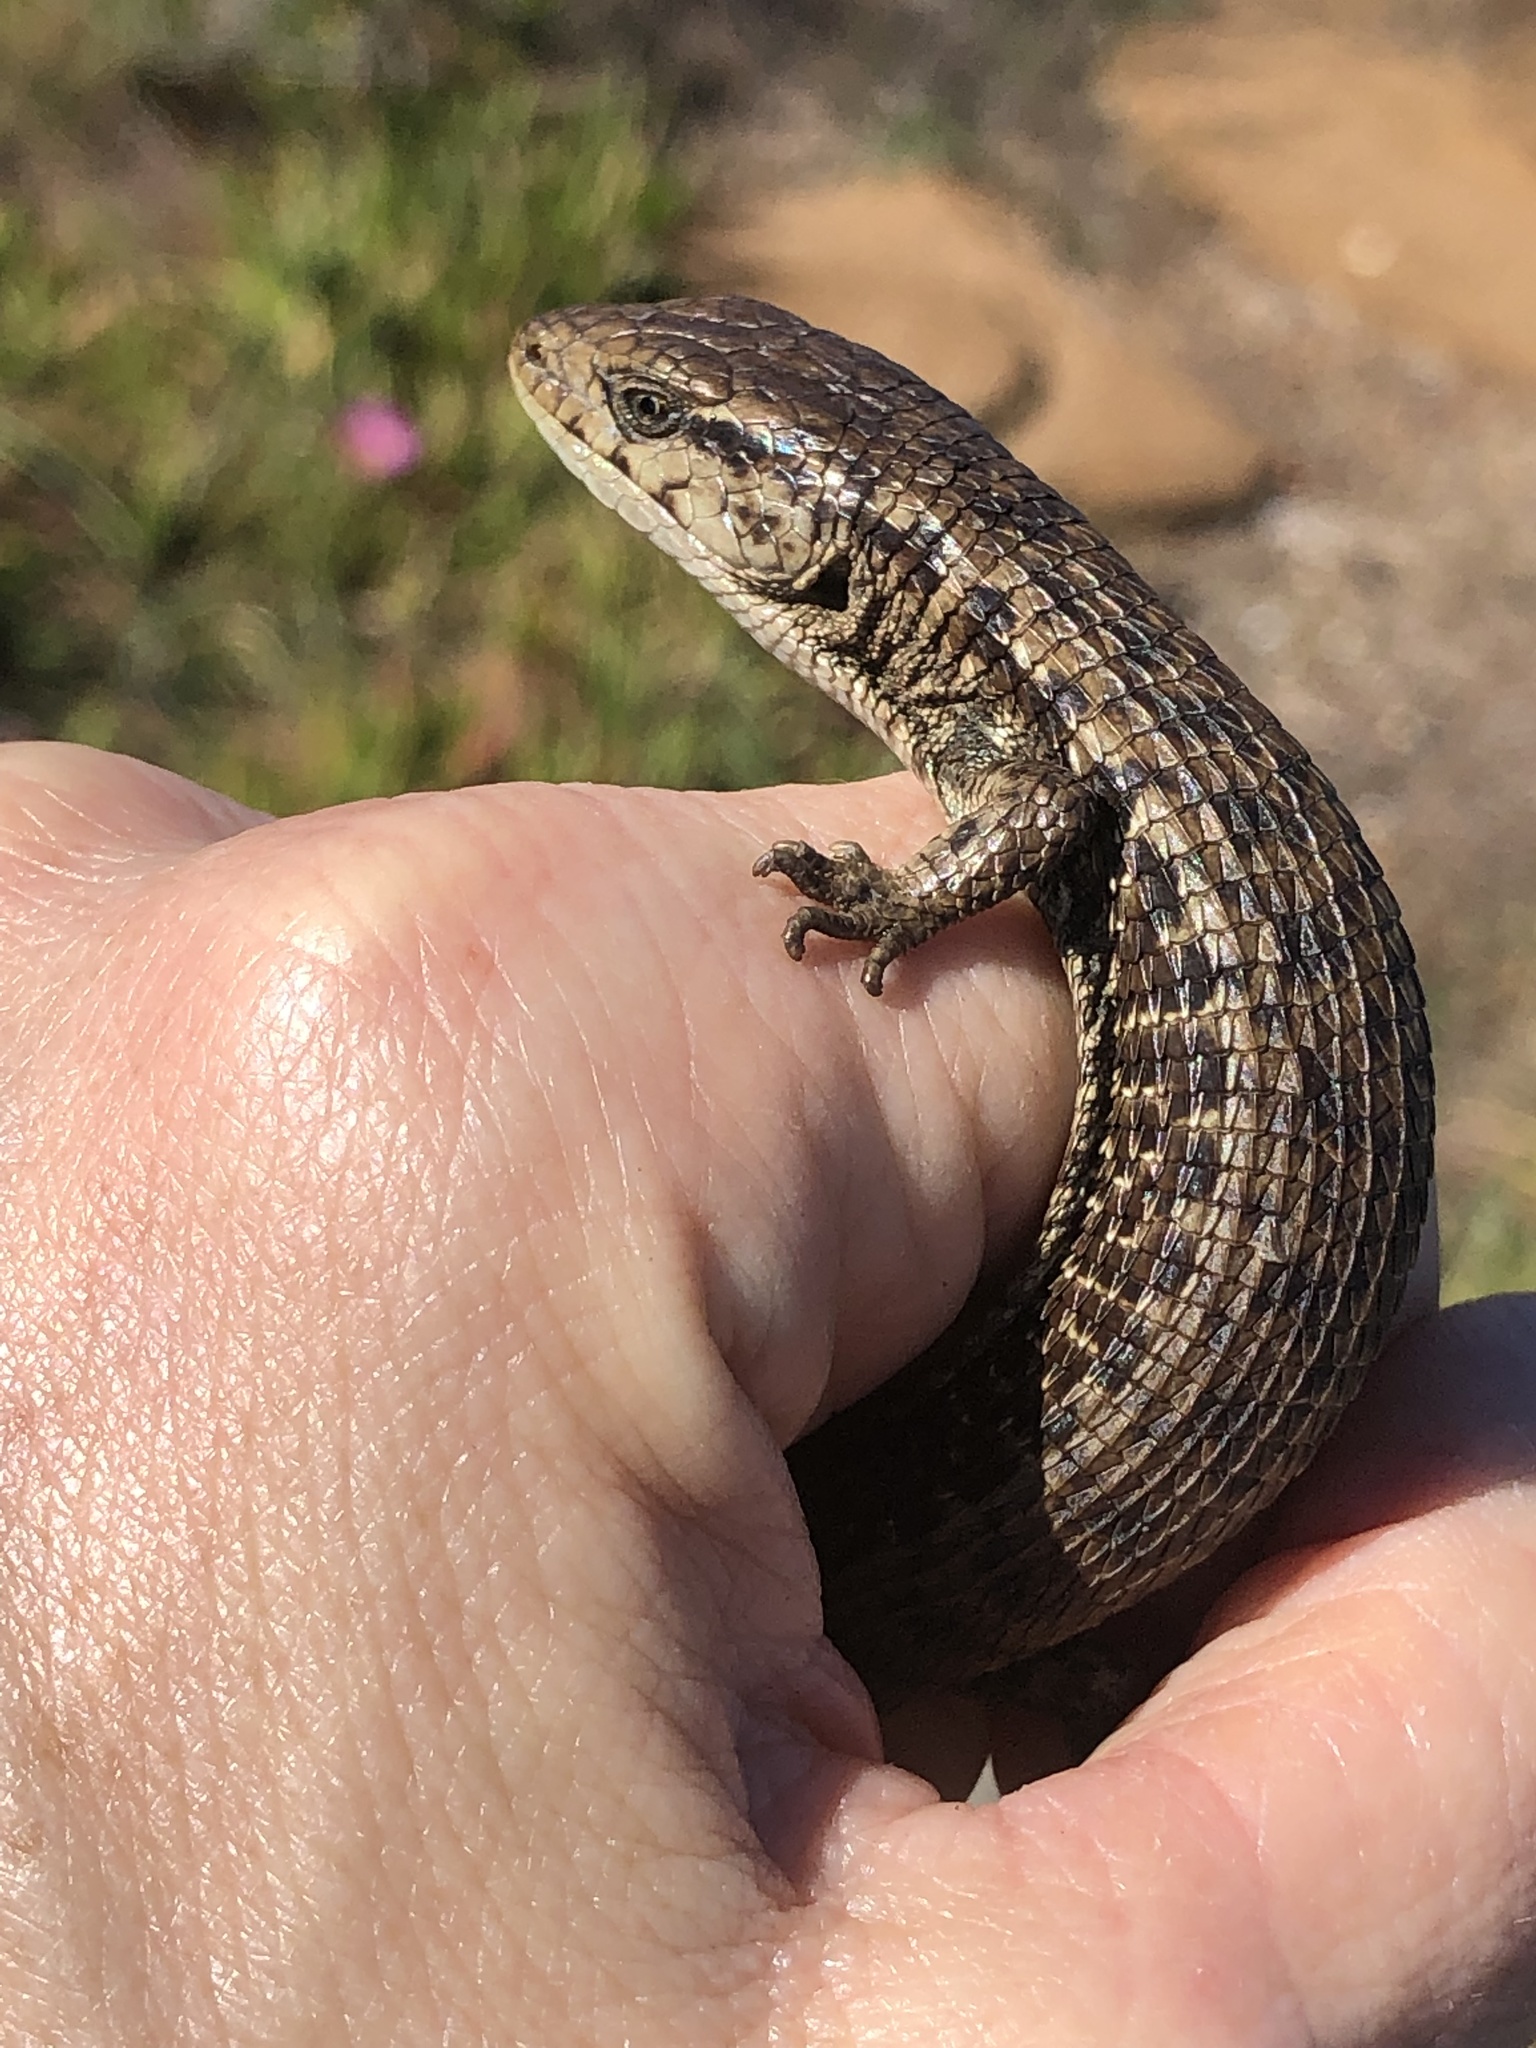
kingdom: Animalia
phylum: Chordata
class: Squamata
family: Anguidae
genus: Elgaria
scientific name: Elgaria coerulea
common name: Northern alligator lizard
